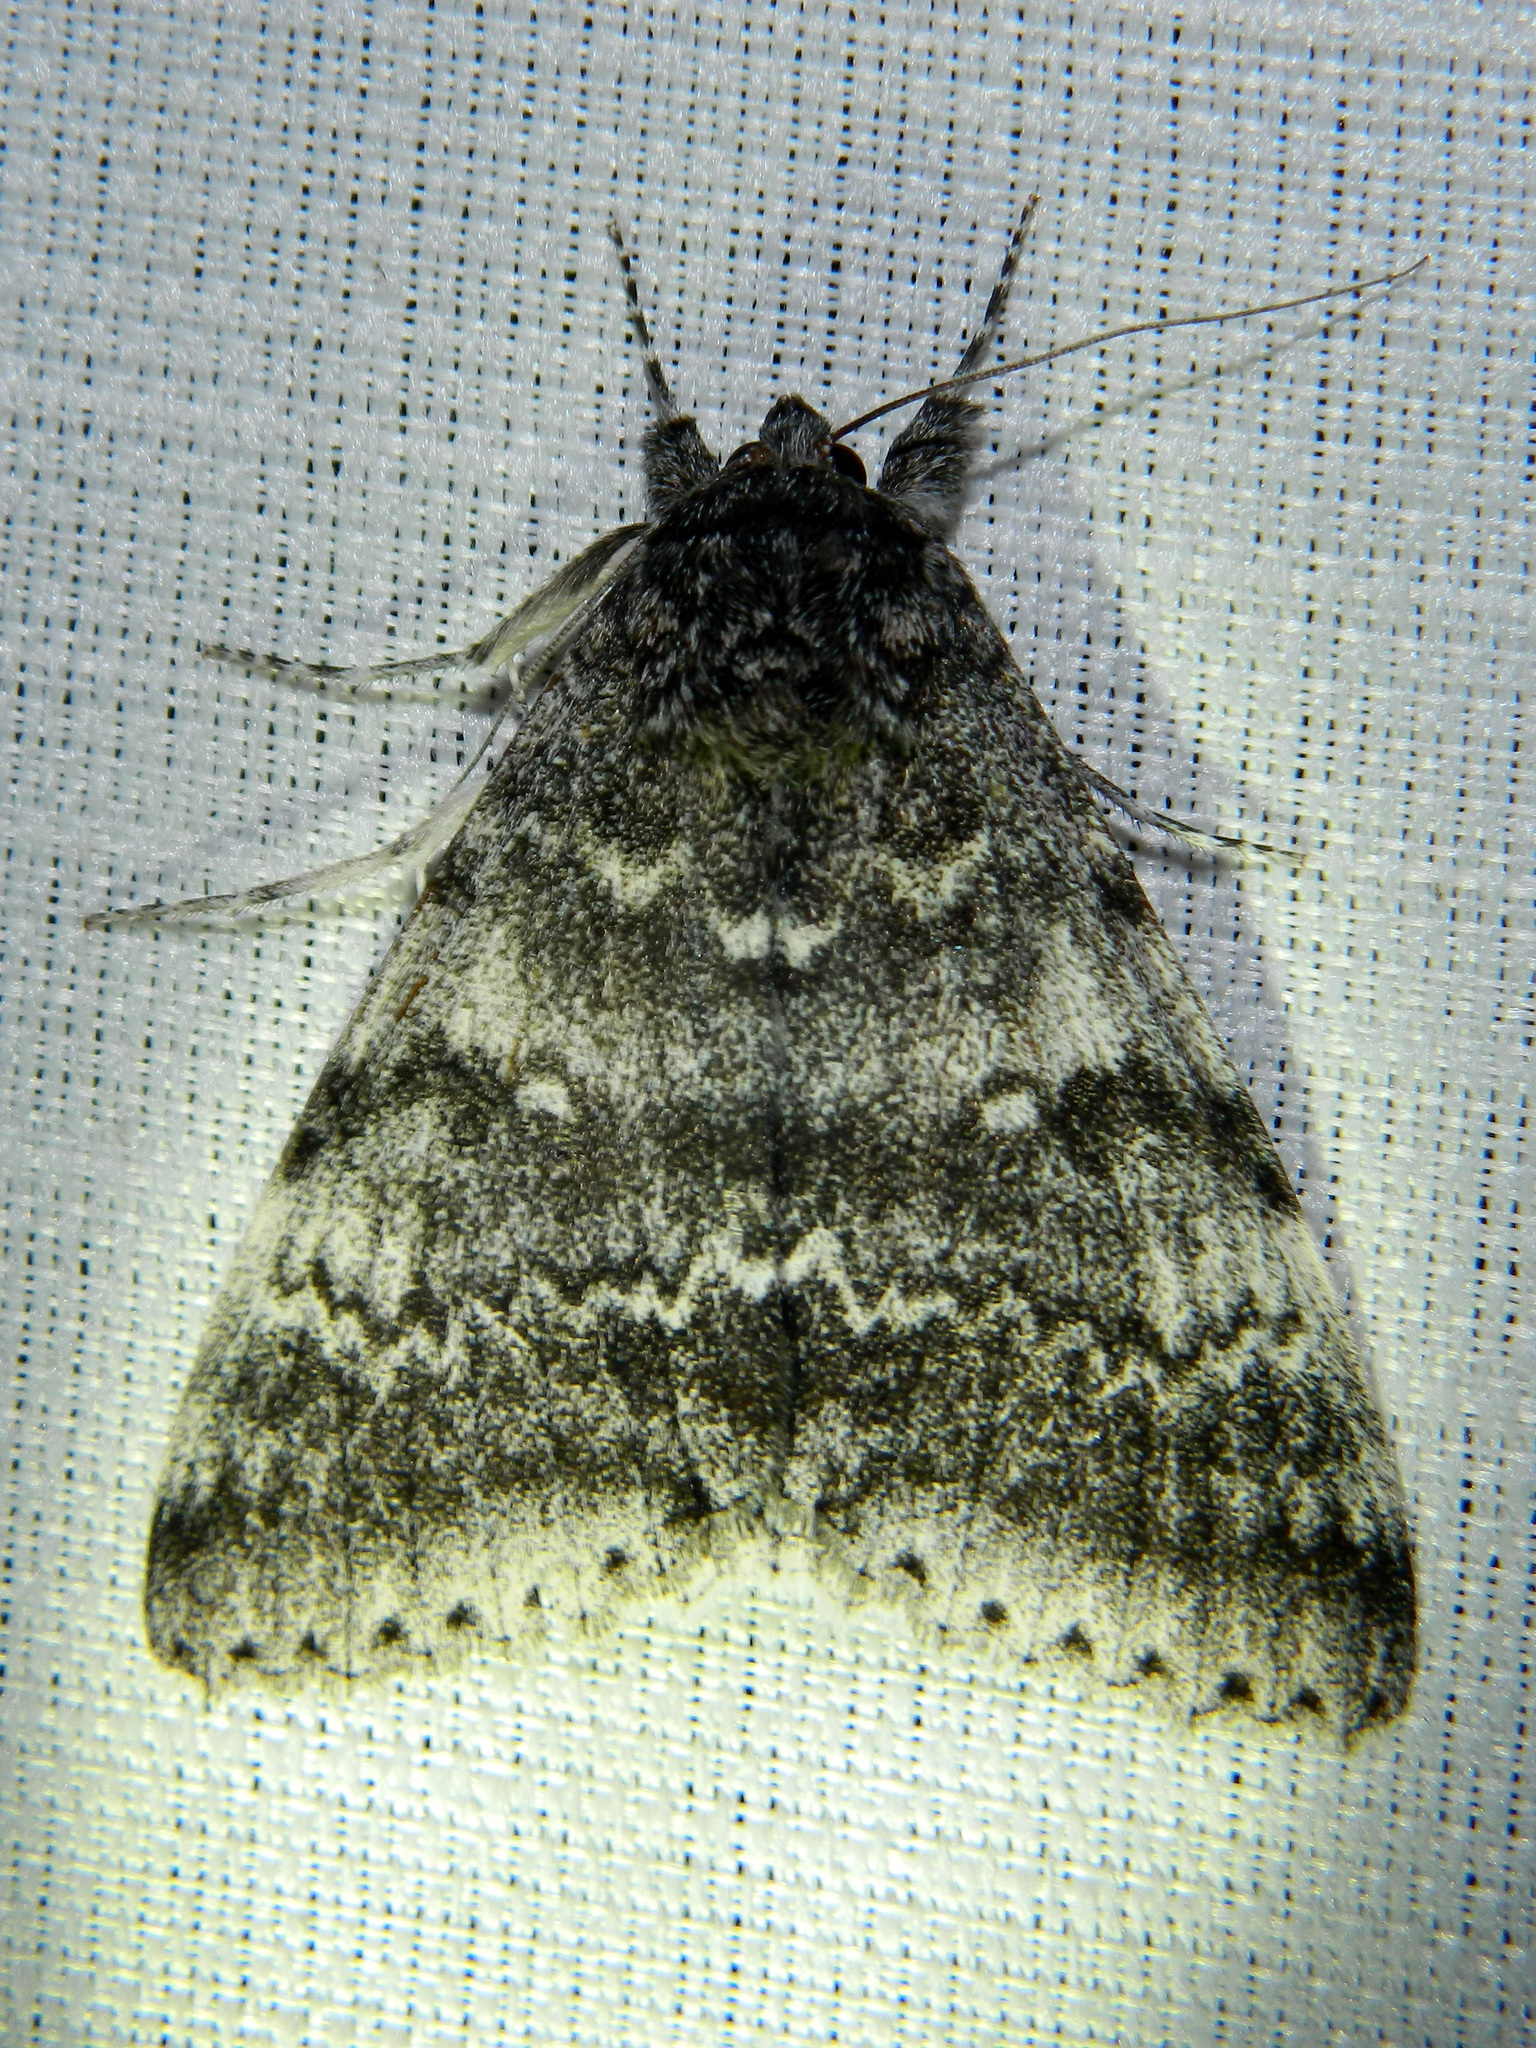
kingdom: Animalia
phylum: Arthropoda
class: Insecta
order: Lepidoptera
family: Erebidae
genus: Catocala
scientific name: Catocala relicta
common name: White underwing
